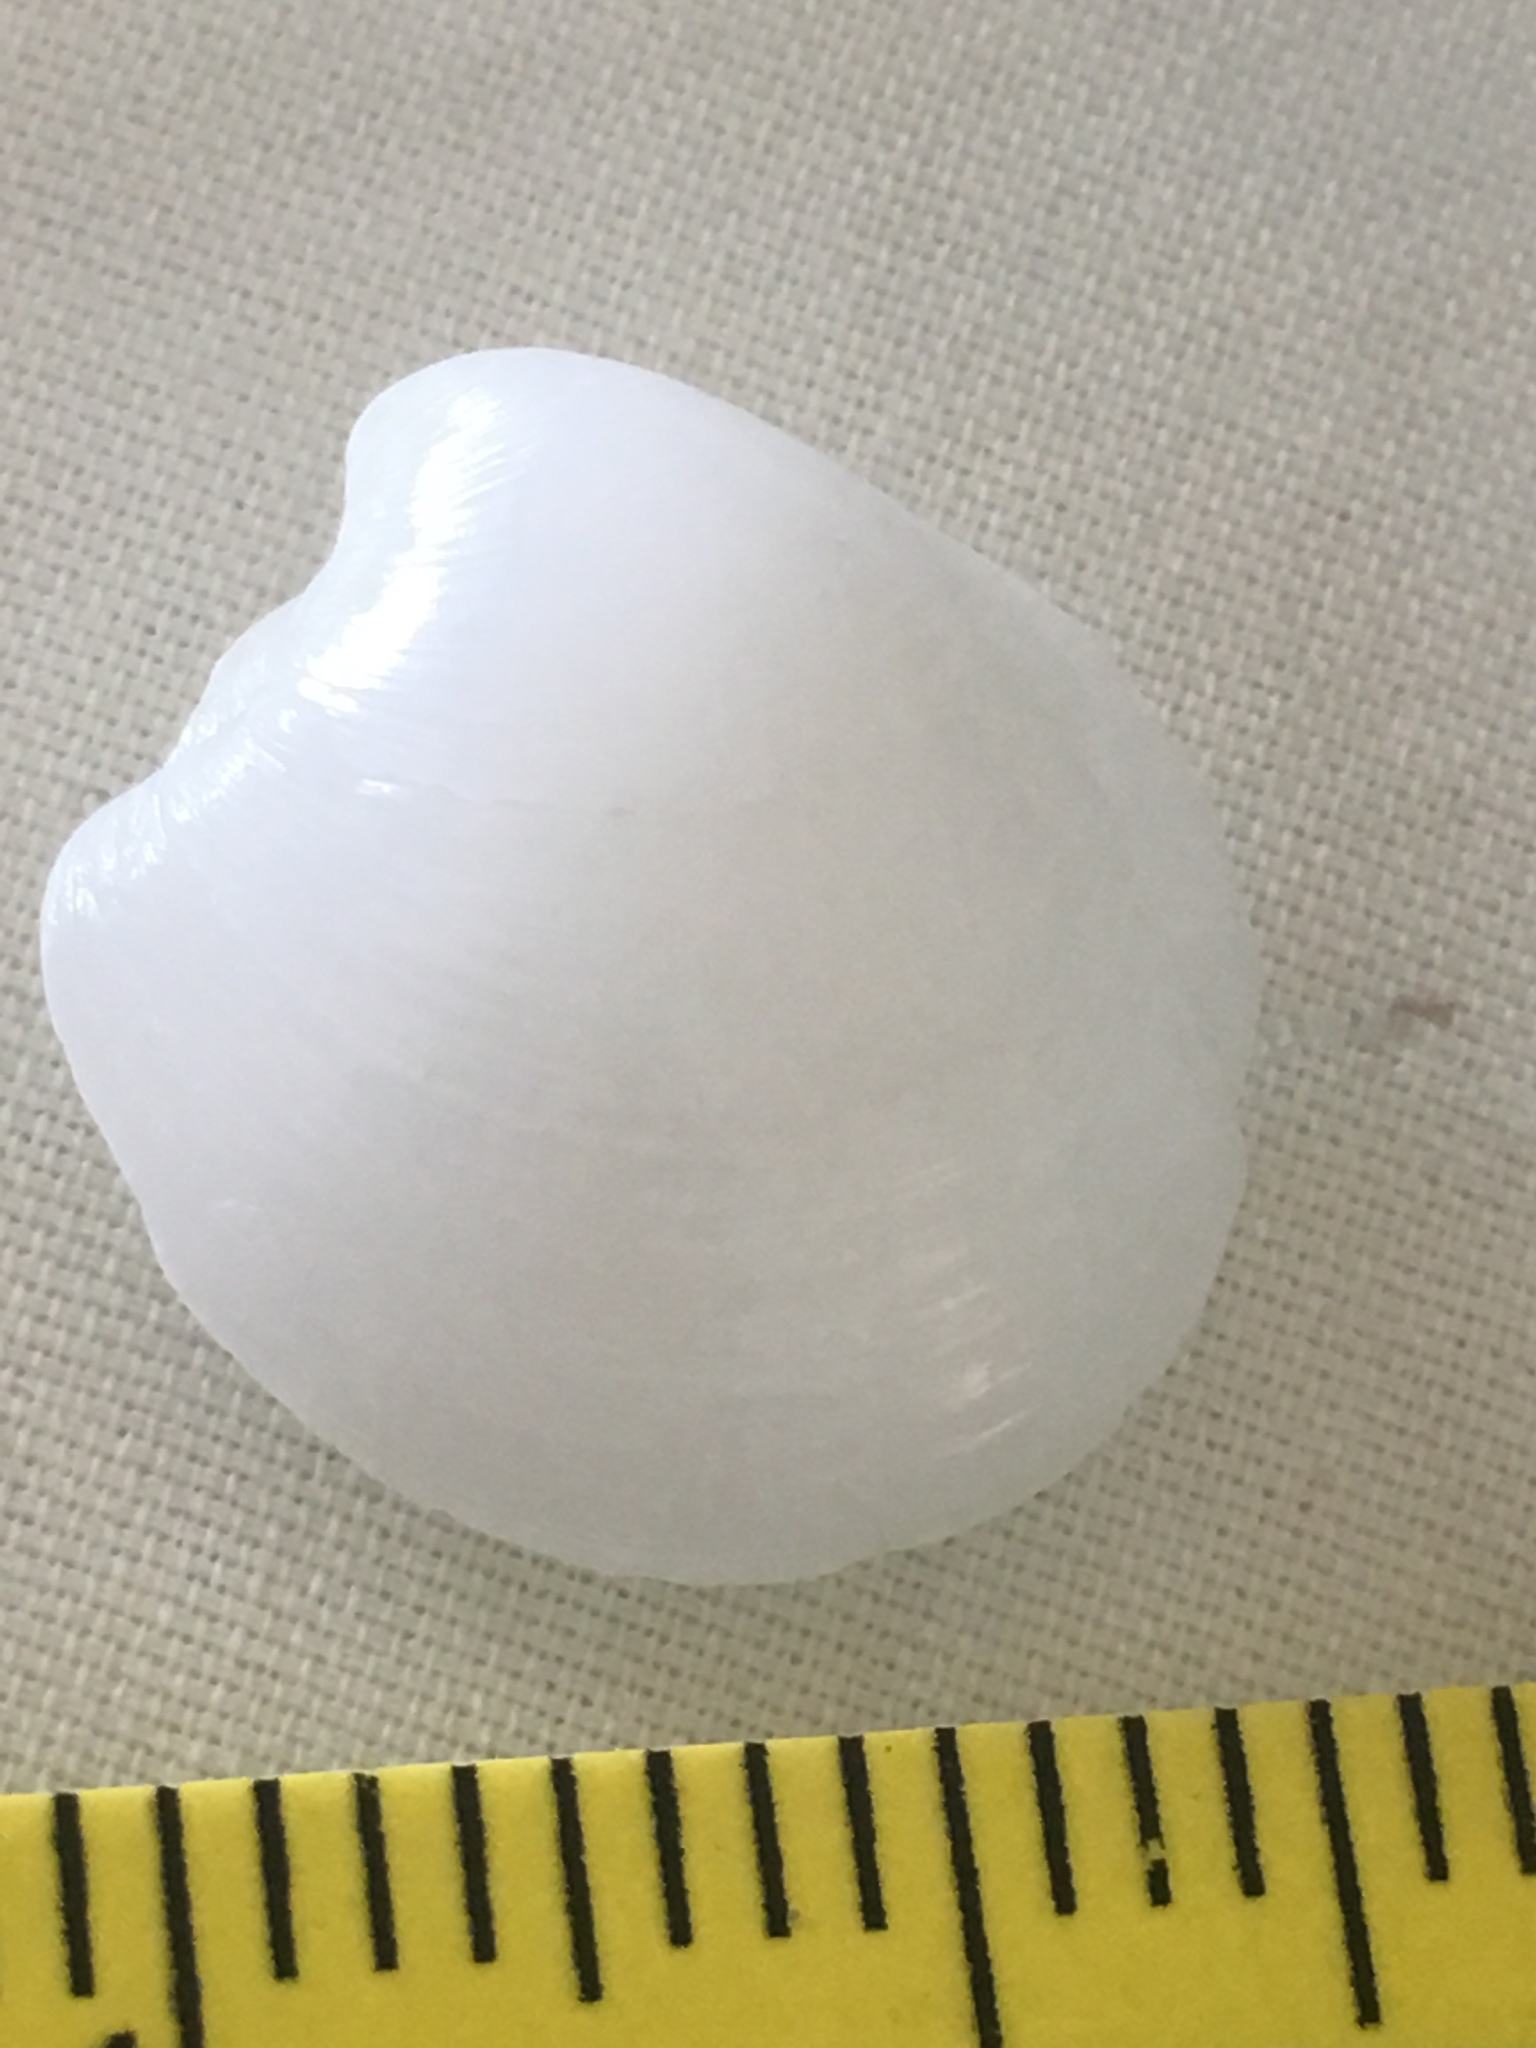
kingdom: Animalia
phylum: Mollusca
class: Bivalvia
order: Lucinida
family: Lucinidae
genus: Lucina
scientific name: Lucina pensylvanica
